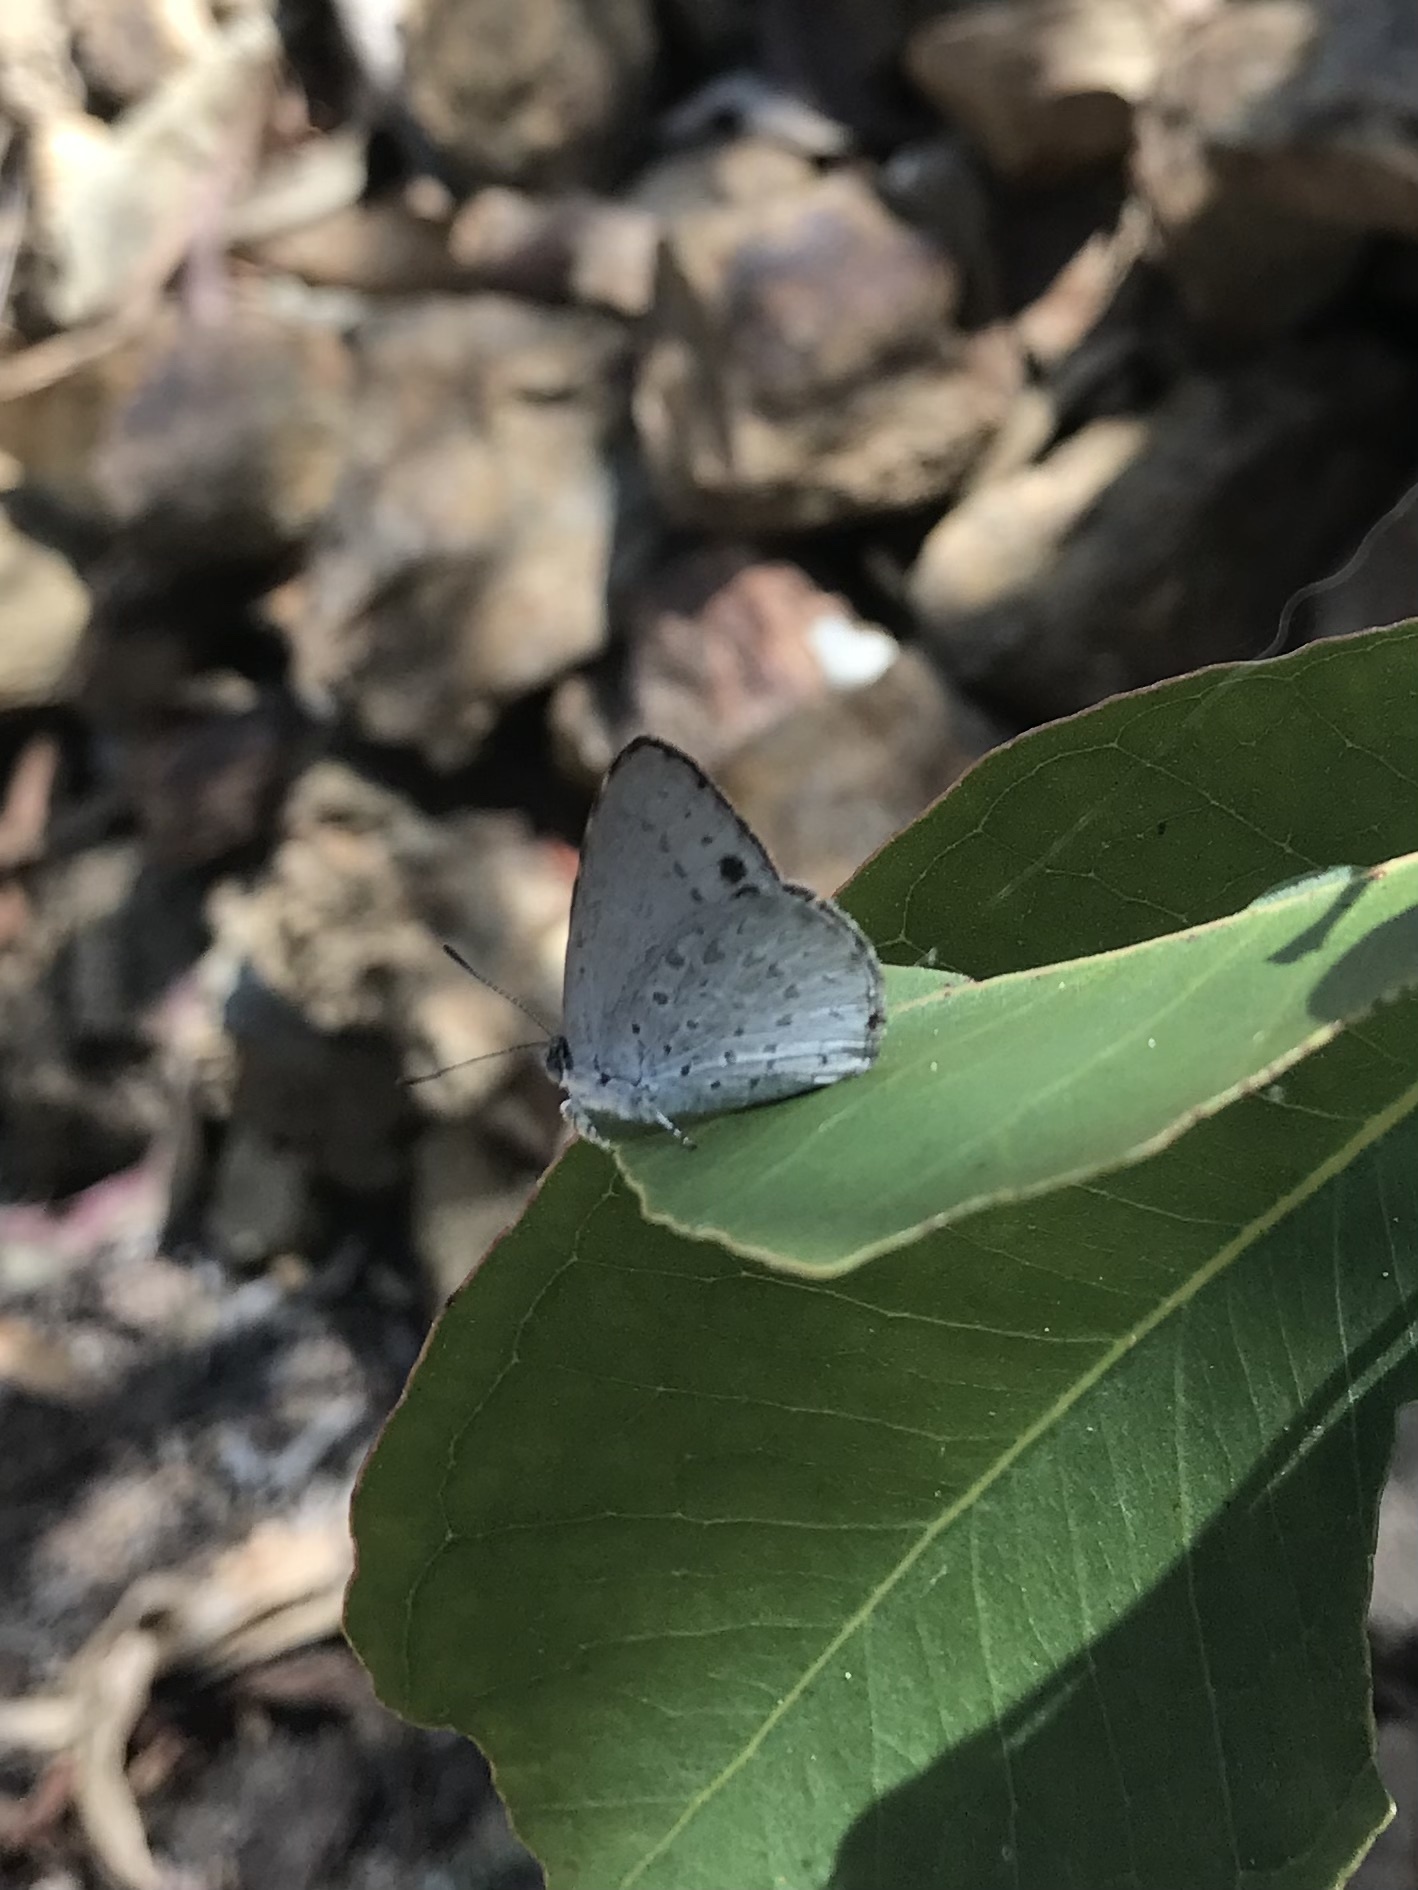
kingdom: Animalia
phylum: Arthropoda
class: Insecta
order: Lepidoptera
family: Lycaenidae
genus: Candalides
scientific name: Candalides
